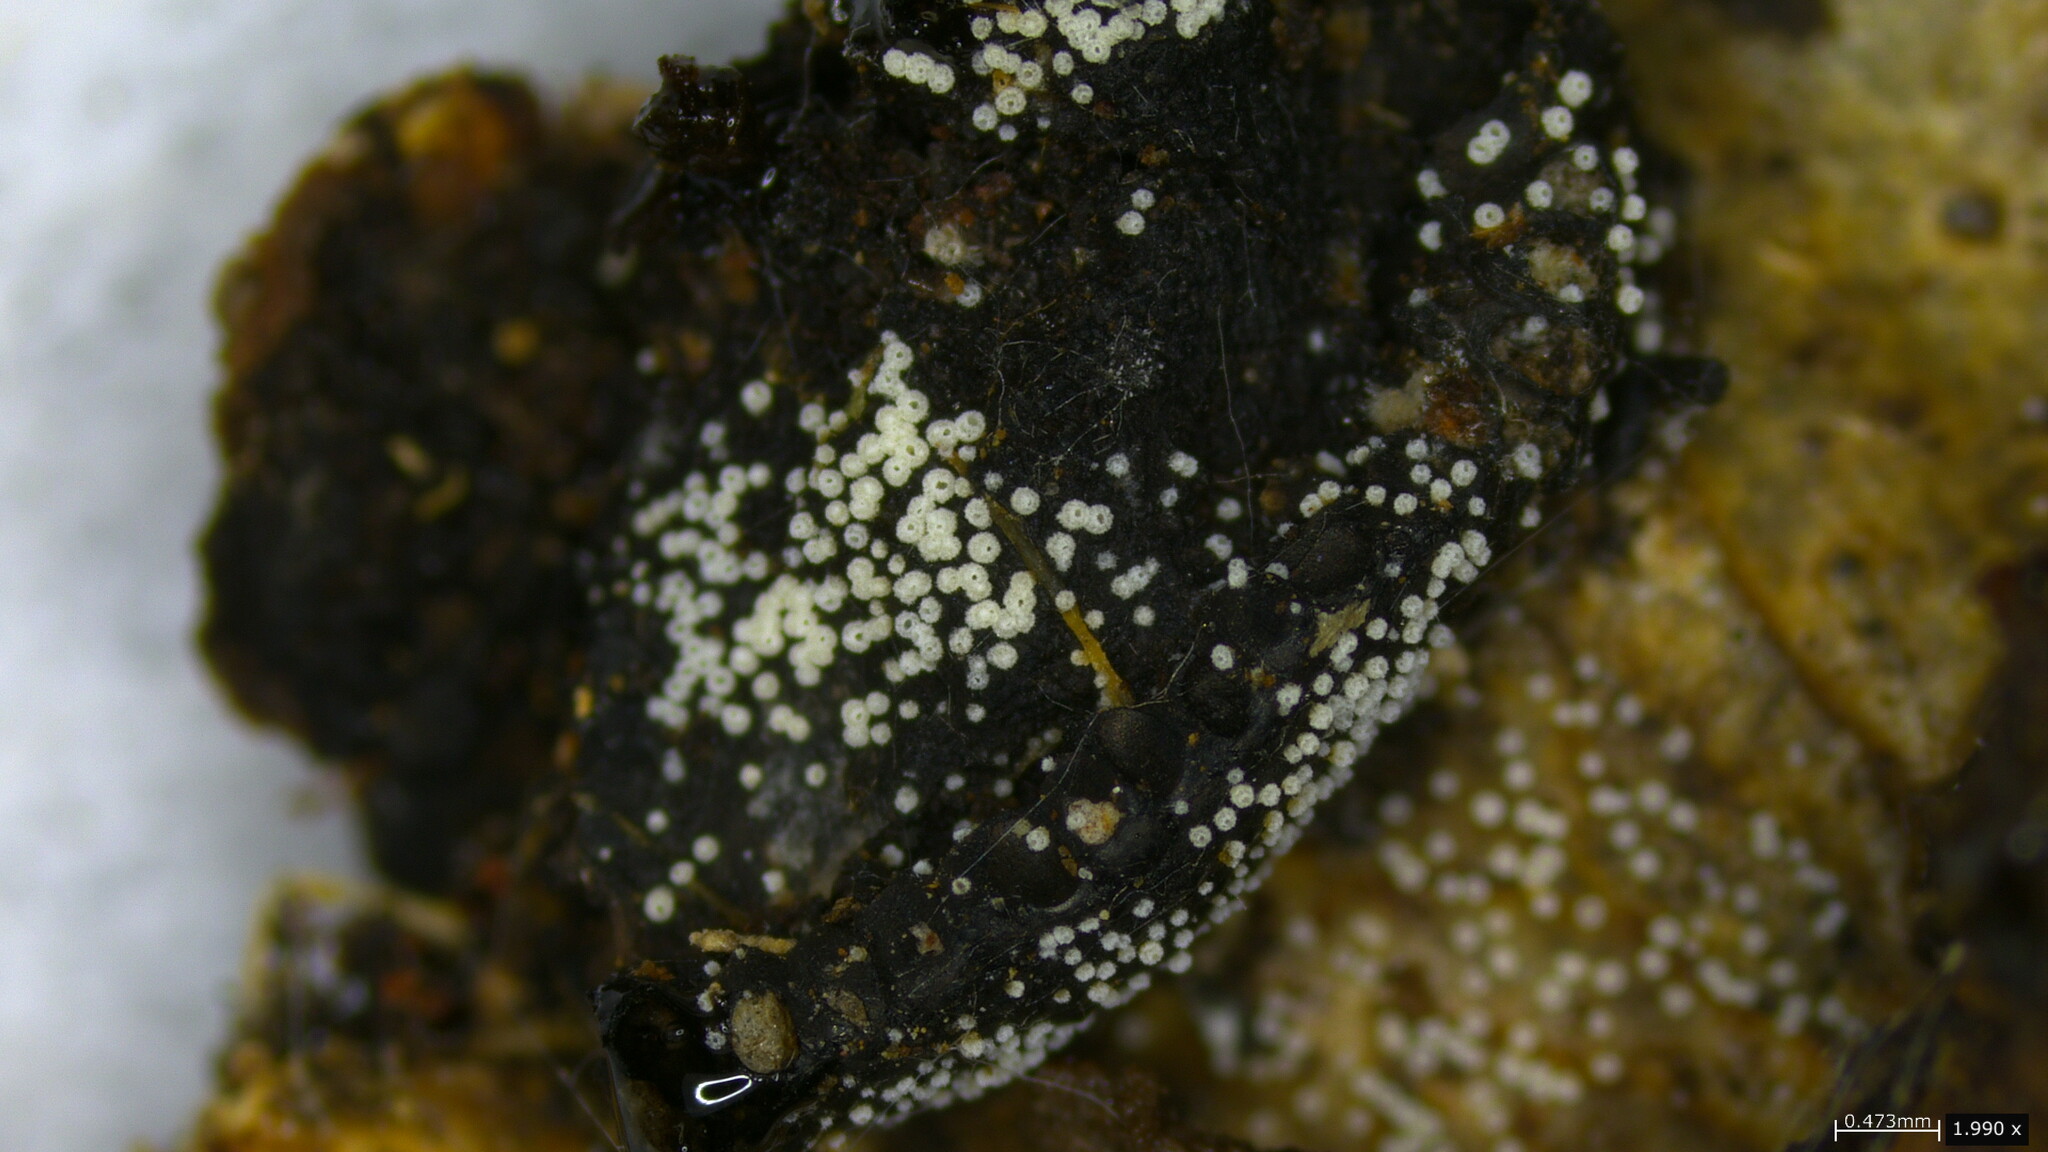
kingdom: Fungi
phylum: Basidiomycota
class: Agaricomycetes
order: Agaricales
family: Marasmiaceae
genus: Henningsomyces
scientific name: Henningsomyces candidus
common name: White tubelet
